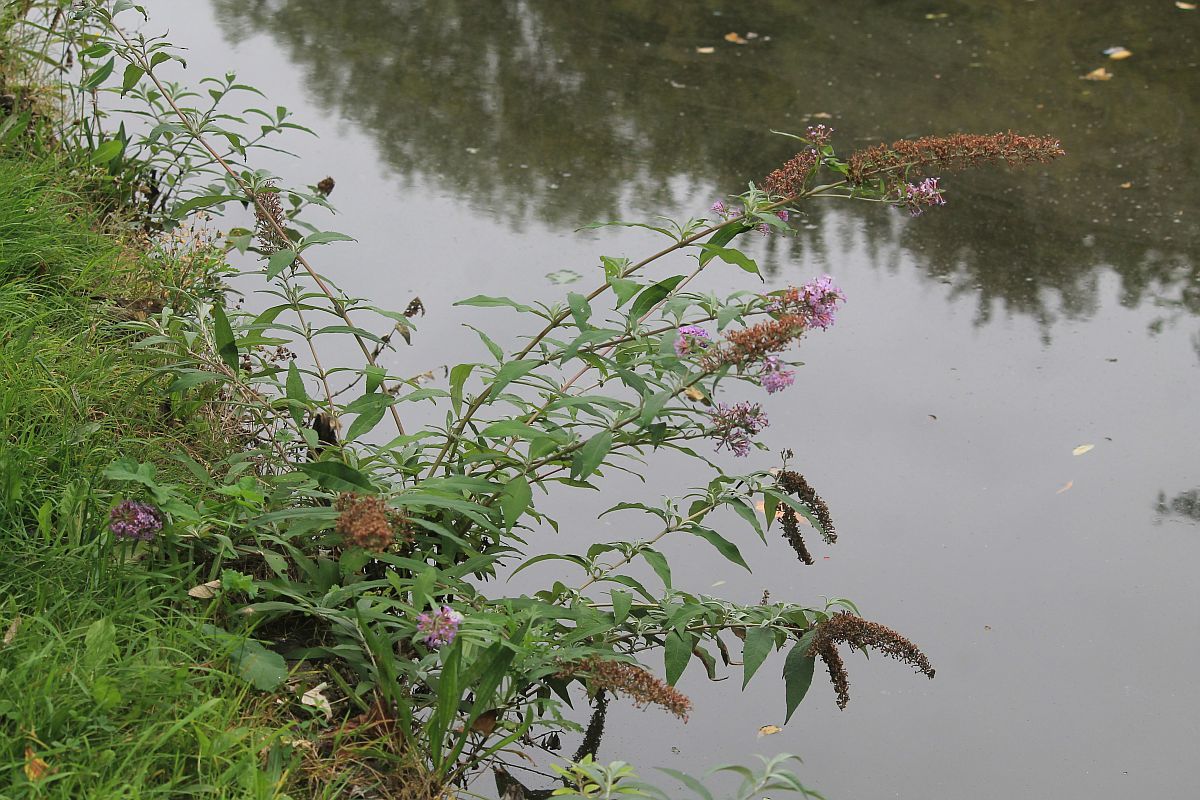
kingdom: Plantae
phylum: Tracheophyta
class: Magnoliopsida
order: Lamiales
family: Scrophulariaceae
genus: Buddleja
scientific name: Buddleja davidii
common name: Butterfly-bush
